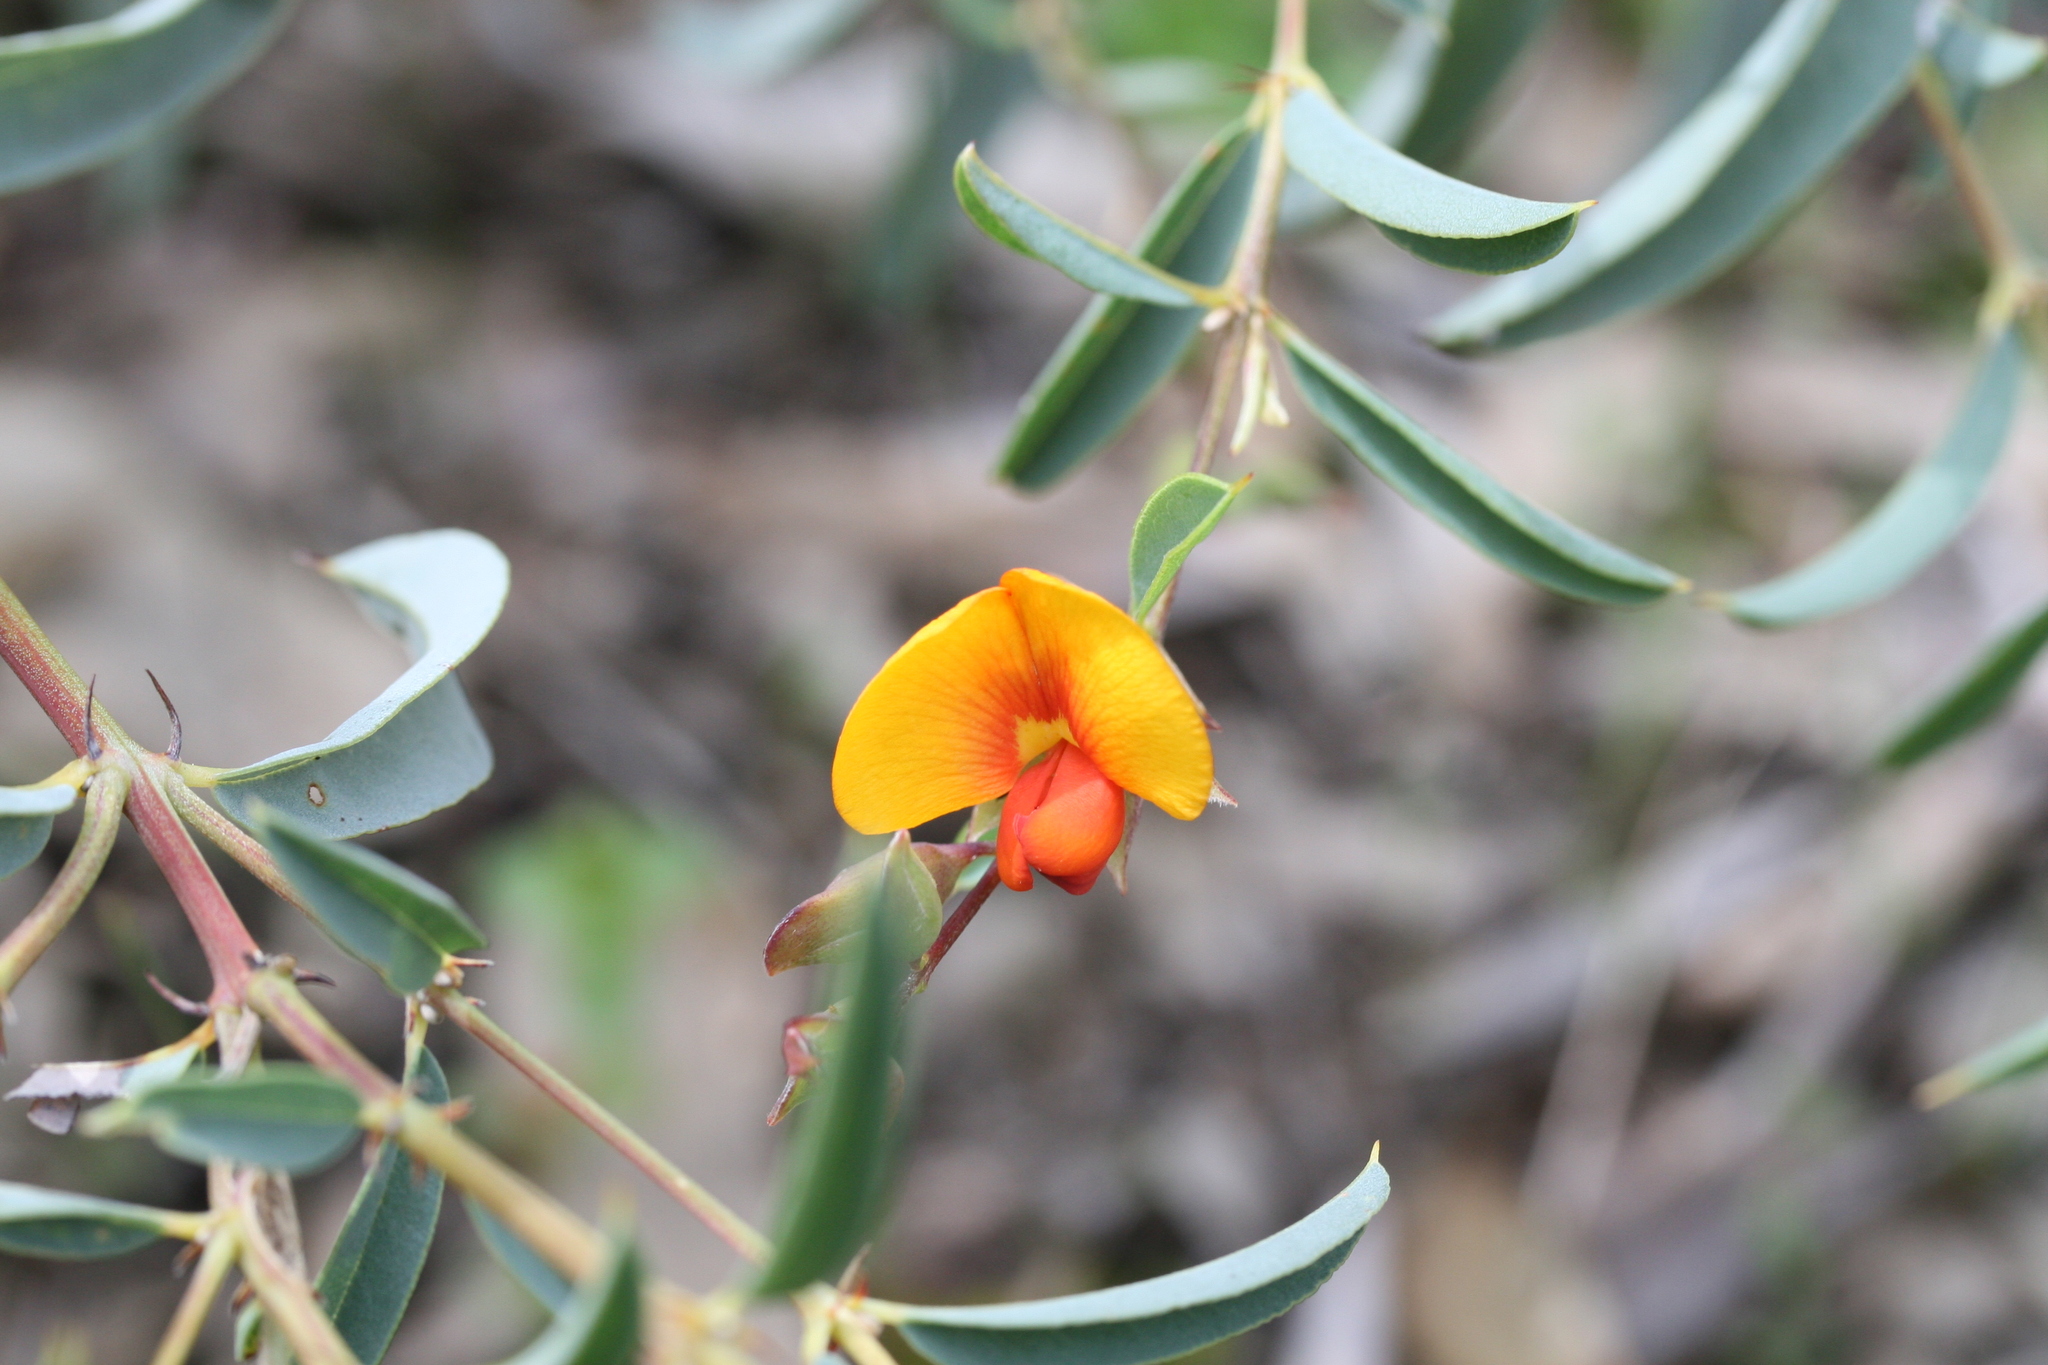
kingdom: Plantae
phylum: Tracheophyta
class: Magnoliopsida
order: Fabales
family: Fabaceae
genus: Gastrolobium
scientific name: Gastrolobium calycinum
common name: York road poison
